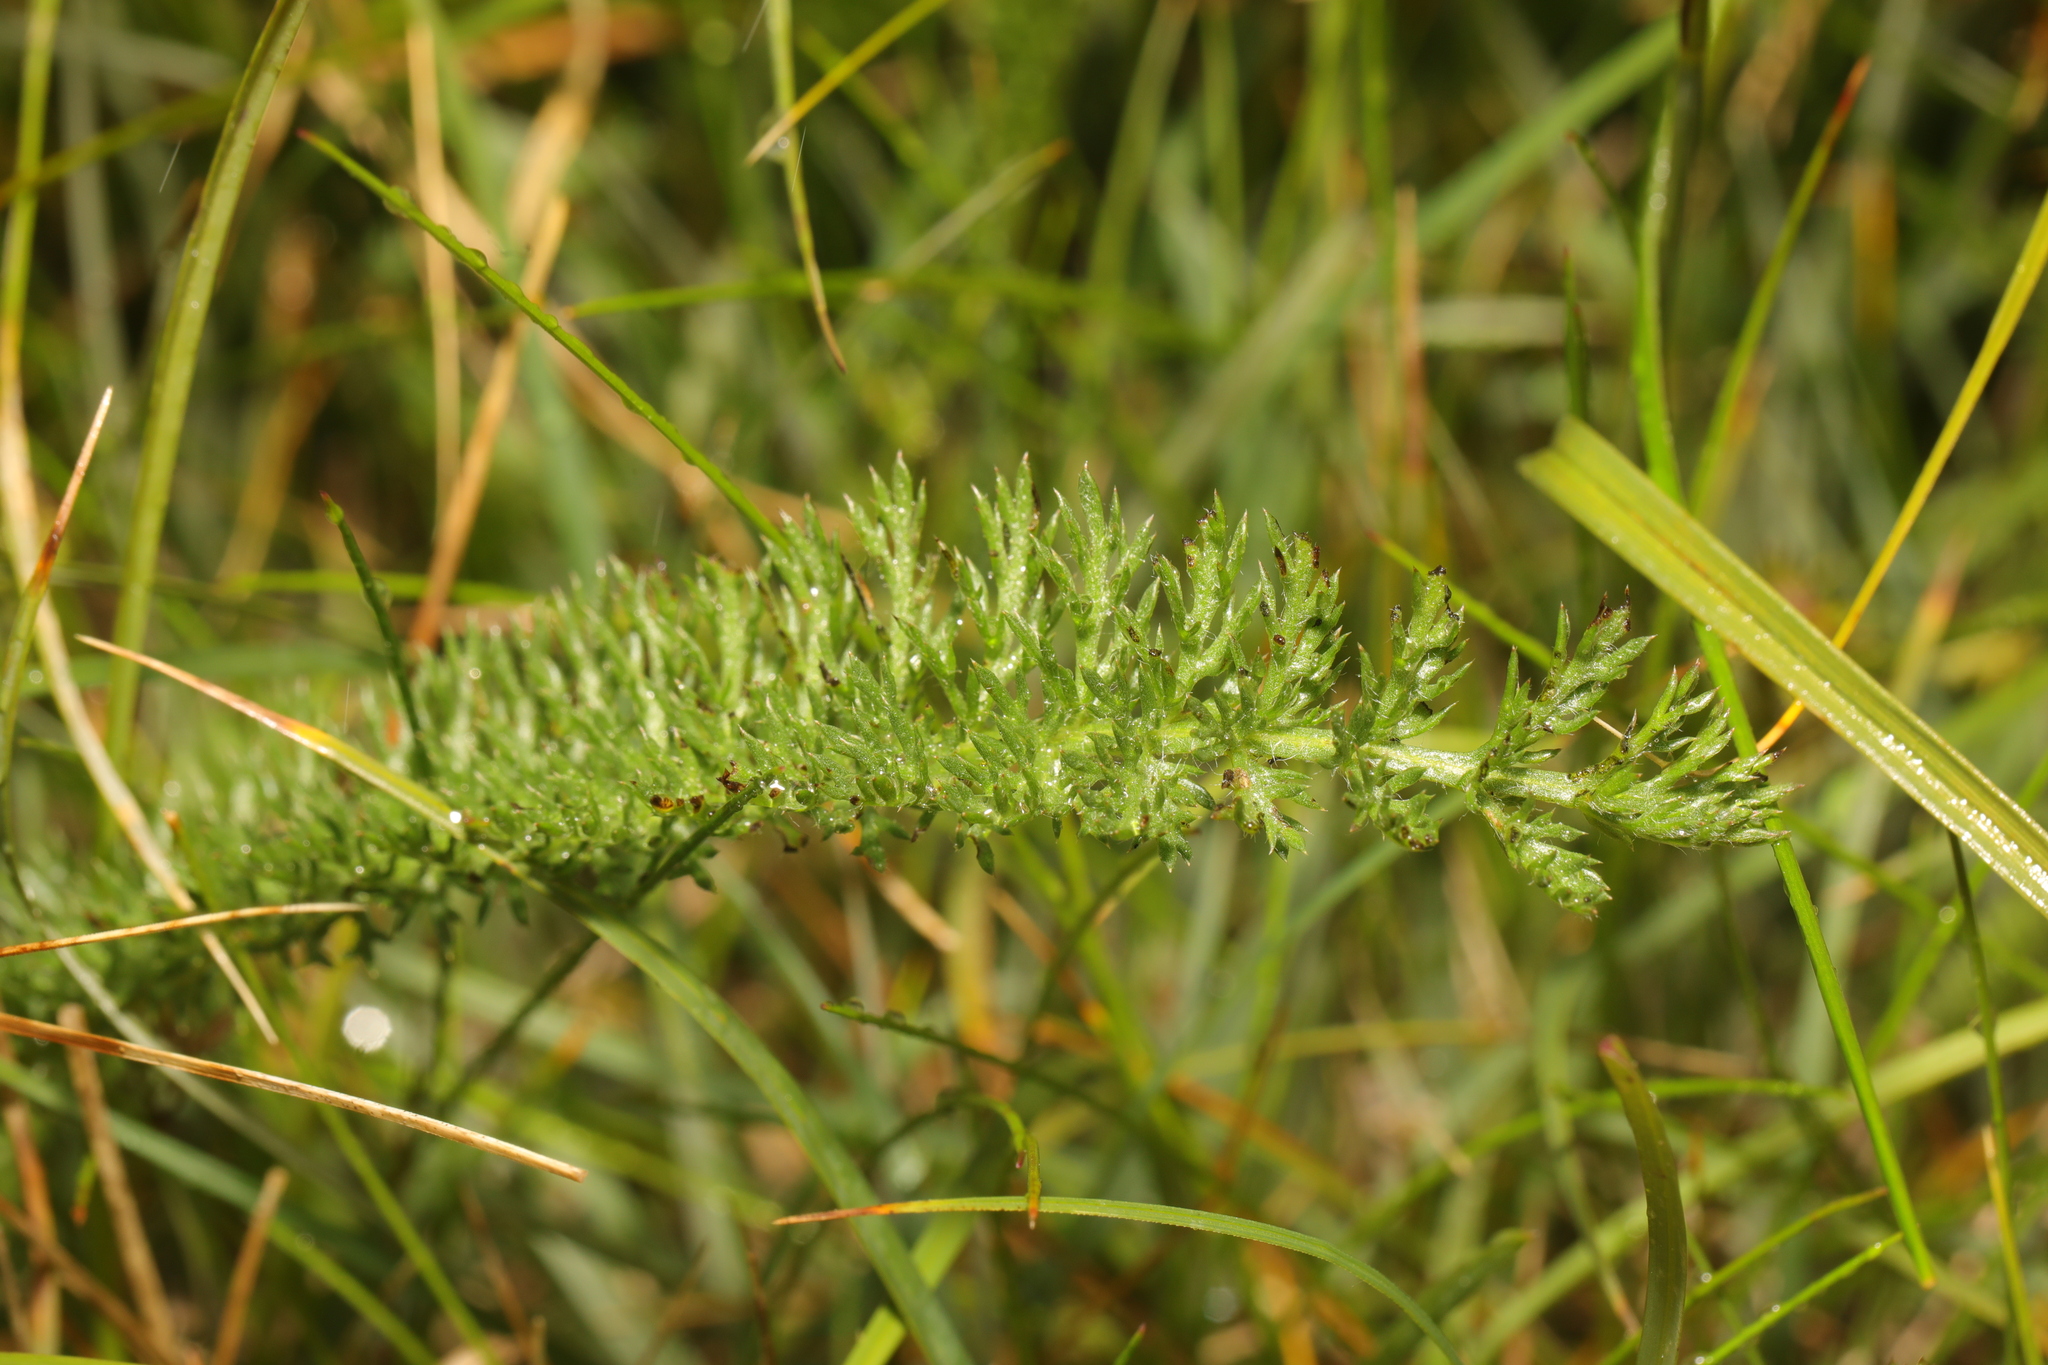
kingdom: Plantae
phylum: Tracheophyta
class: Magnoliopsida
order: Asterales
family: Asteraceae
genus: Achillea
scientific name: Achillea millefolium
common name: Yarrow
